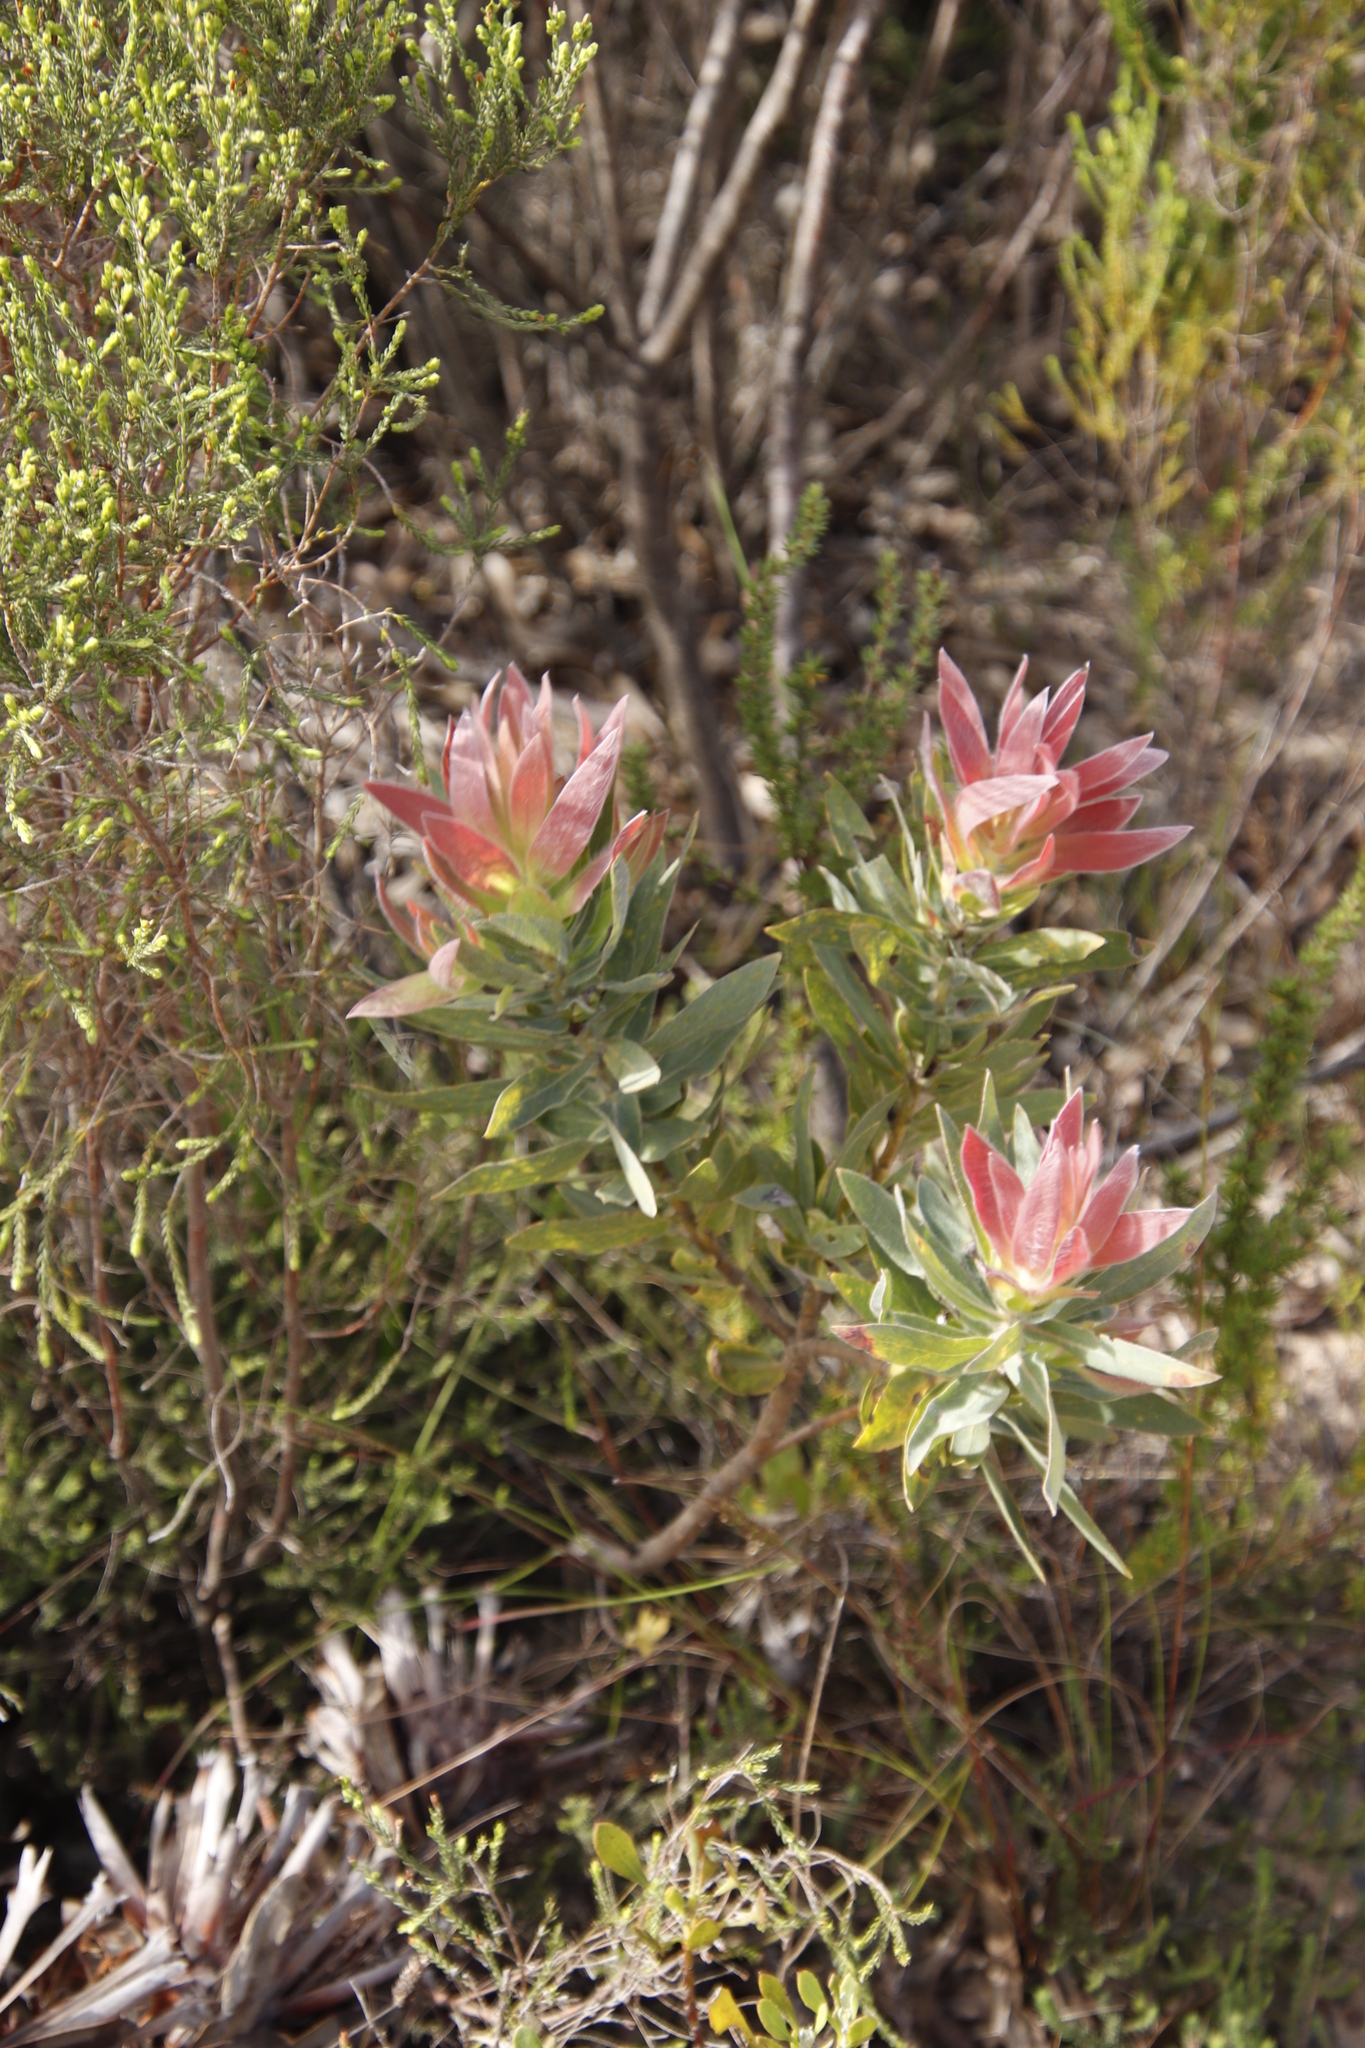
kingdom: Plantae
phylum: Tracheophyta
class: Magnoliopsida
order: Proteales
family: Proteaceae
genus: Protea
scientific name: Protea coronata
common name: Green sugarbush
